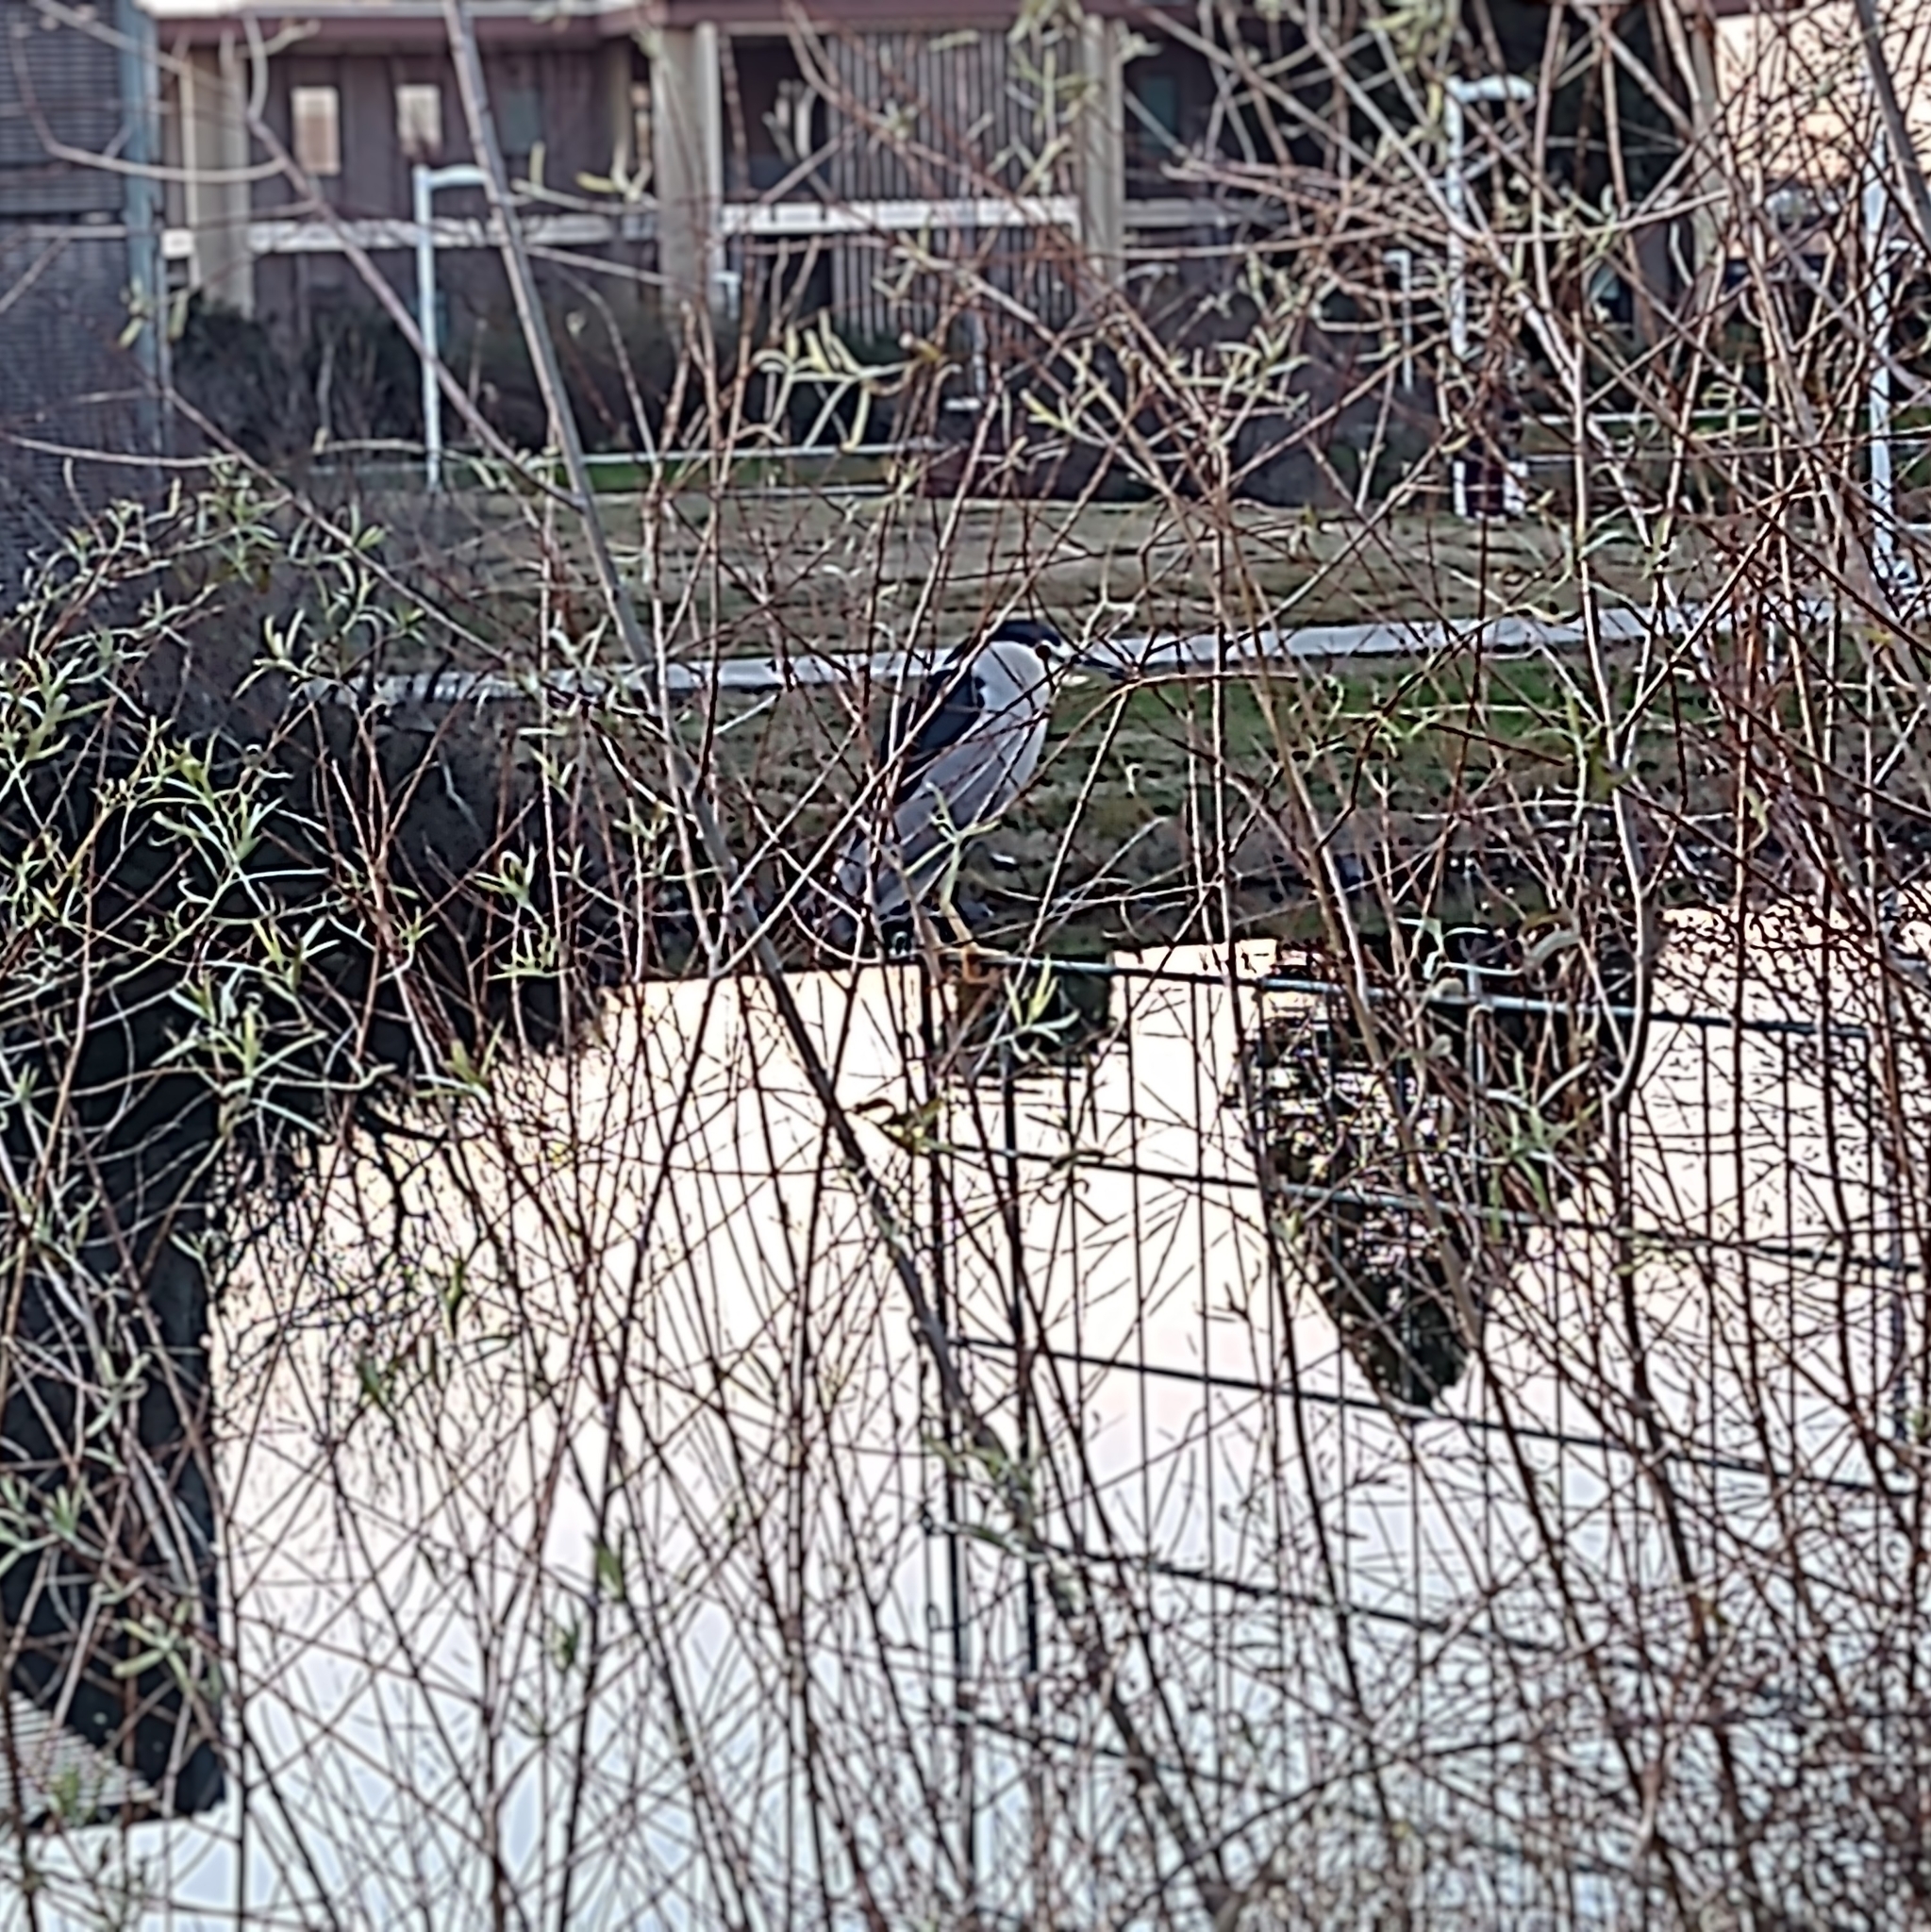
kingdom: Animalia
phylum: Chordata
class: Aves
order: Pelecaniformes
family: Ardeidae
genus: Nycticorax
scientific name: Nycticorax nycticorax
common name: Black-crowned night heron
